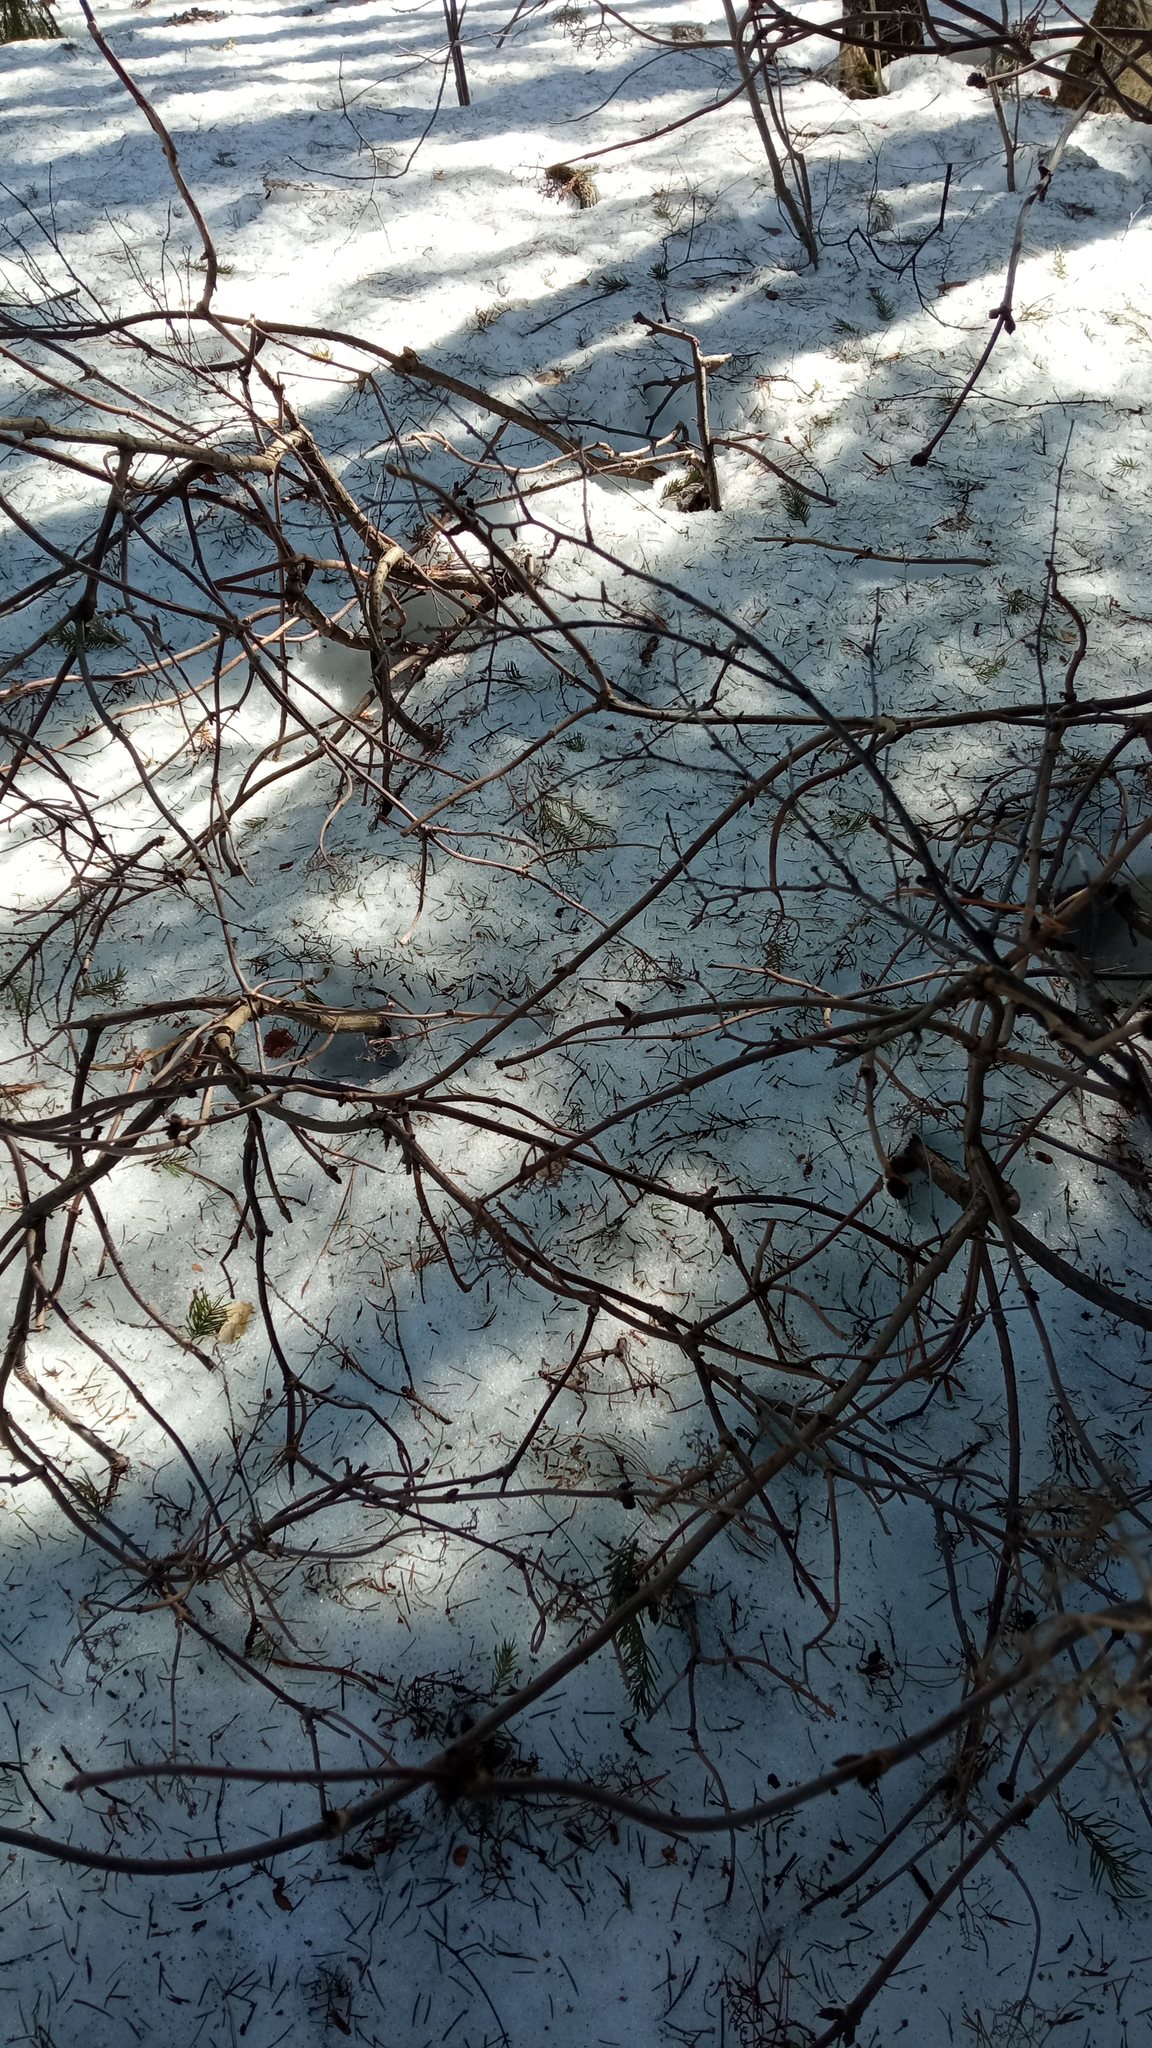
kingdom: Plantae
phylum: Tracheophyta
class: Magnoliopsida
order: Dipsacales
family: Viburnaceae
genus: Sambucus
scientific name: Sambucus sibirica
